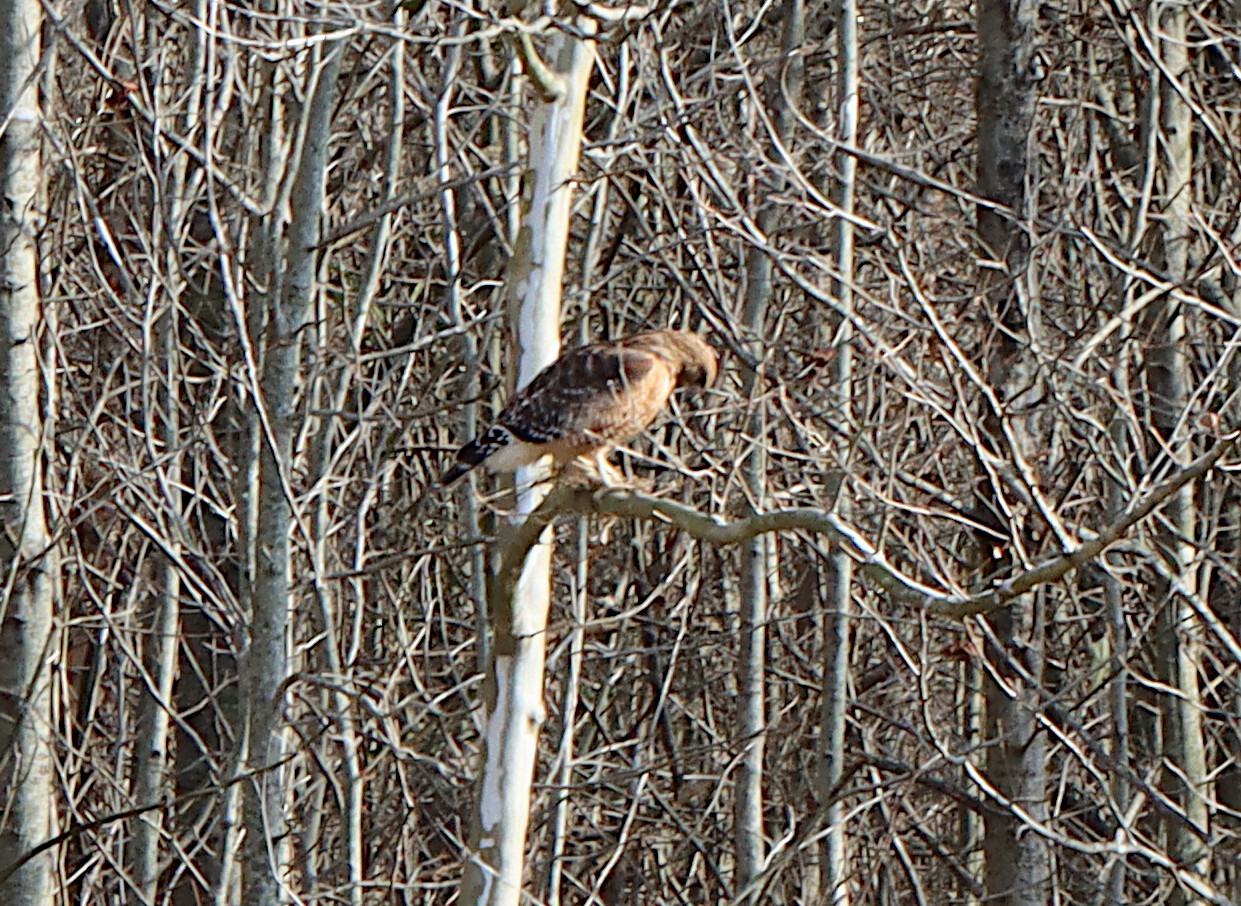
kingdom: Animalia
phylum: Chordata
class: Aves
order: Accipitriformes
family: Accipitridae
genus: Buteo
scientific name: Buteo lineatus
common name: Red-shouldered hawk
